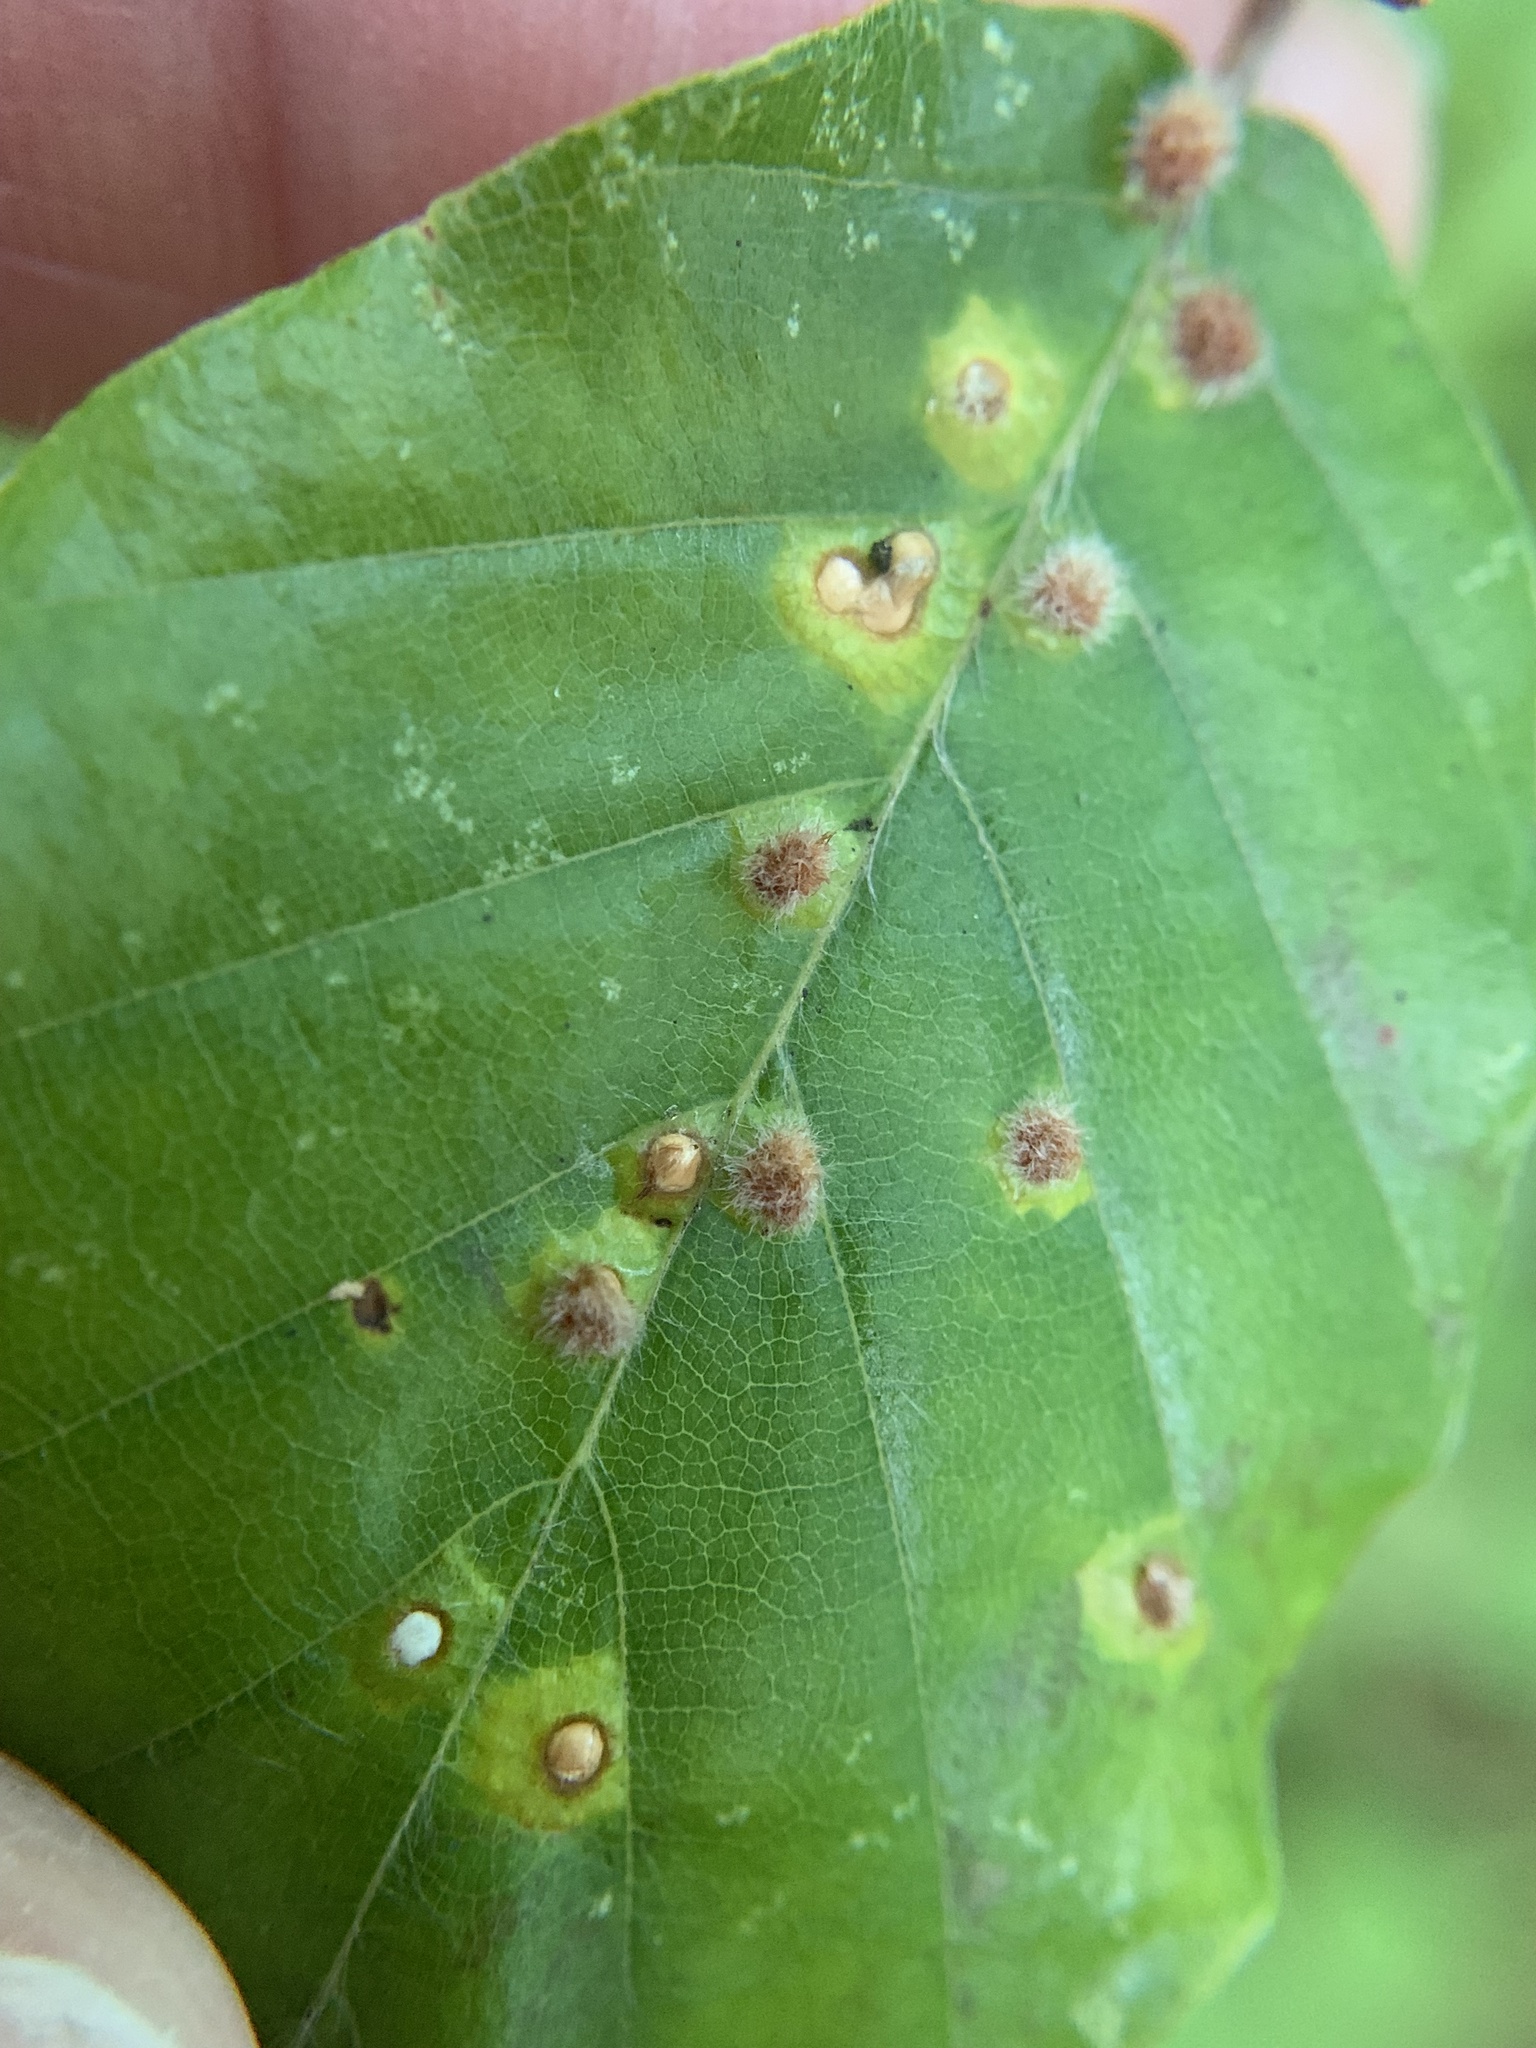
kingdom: Animalia
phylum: Arthropoda
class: Insecta
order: Diptera
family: Cecidomyiidae
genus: Hartigiola
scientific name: Hartigiola annulipes
